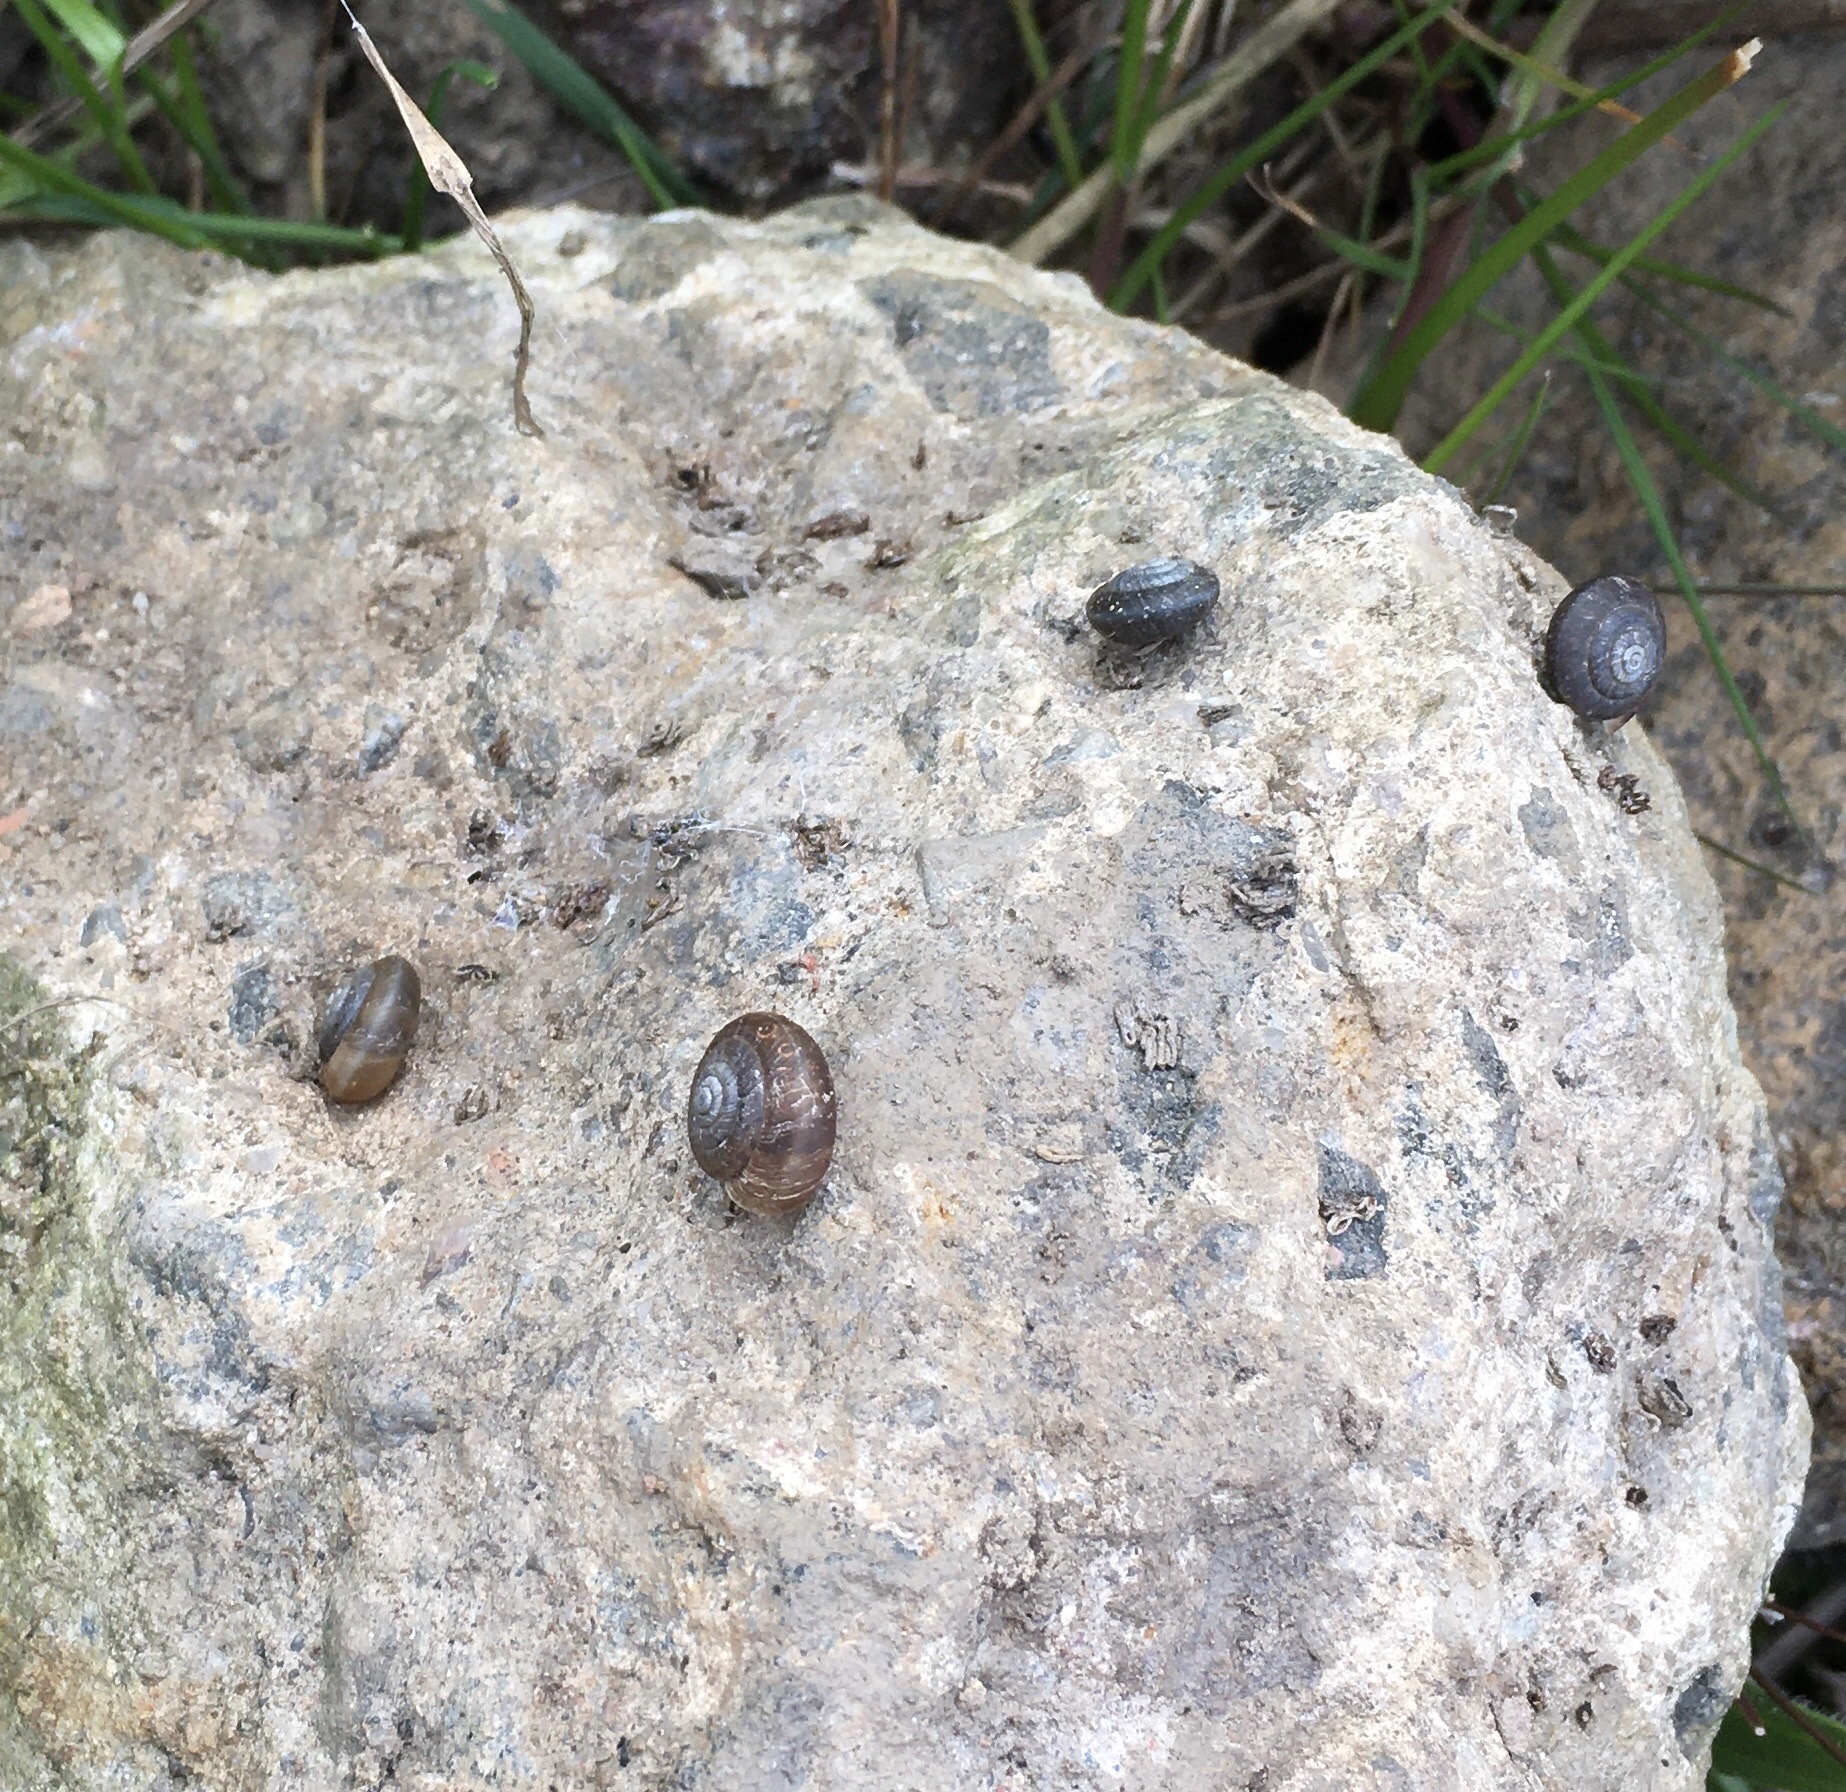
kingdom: Animalia
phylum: Mollusca
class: Gastropoda
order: Stylommatophora
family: Hygromiidae
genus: Trochulus
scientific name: Trochulus striolatus
